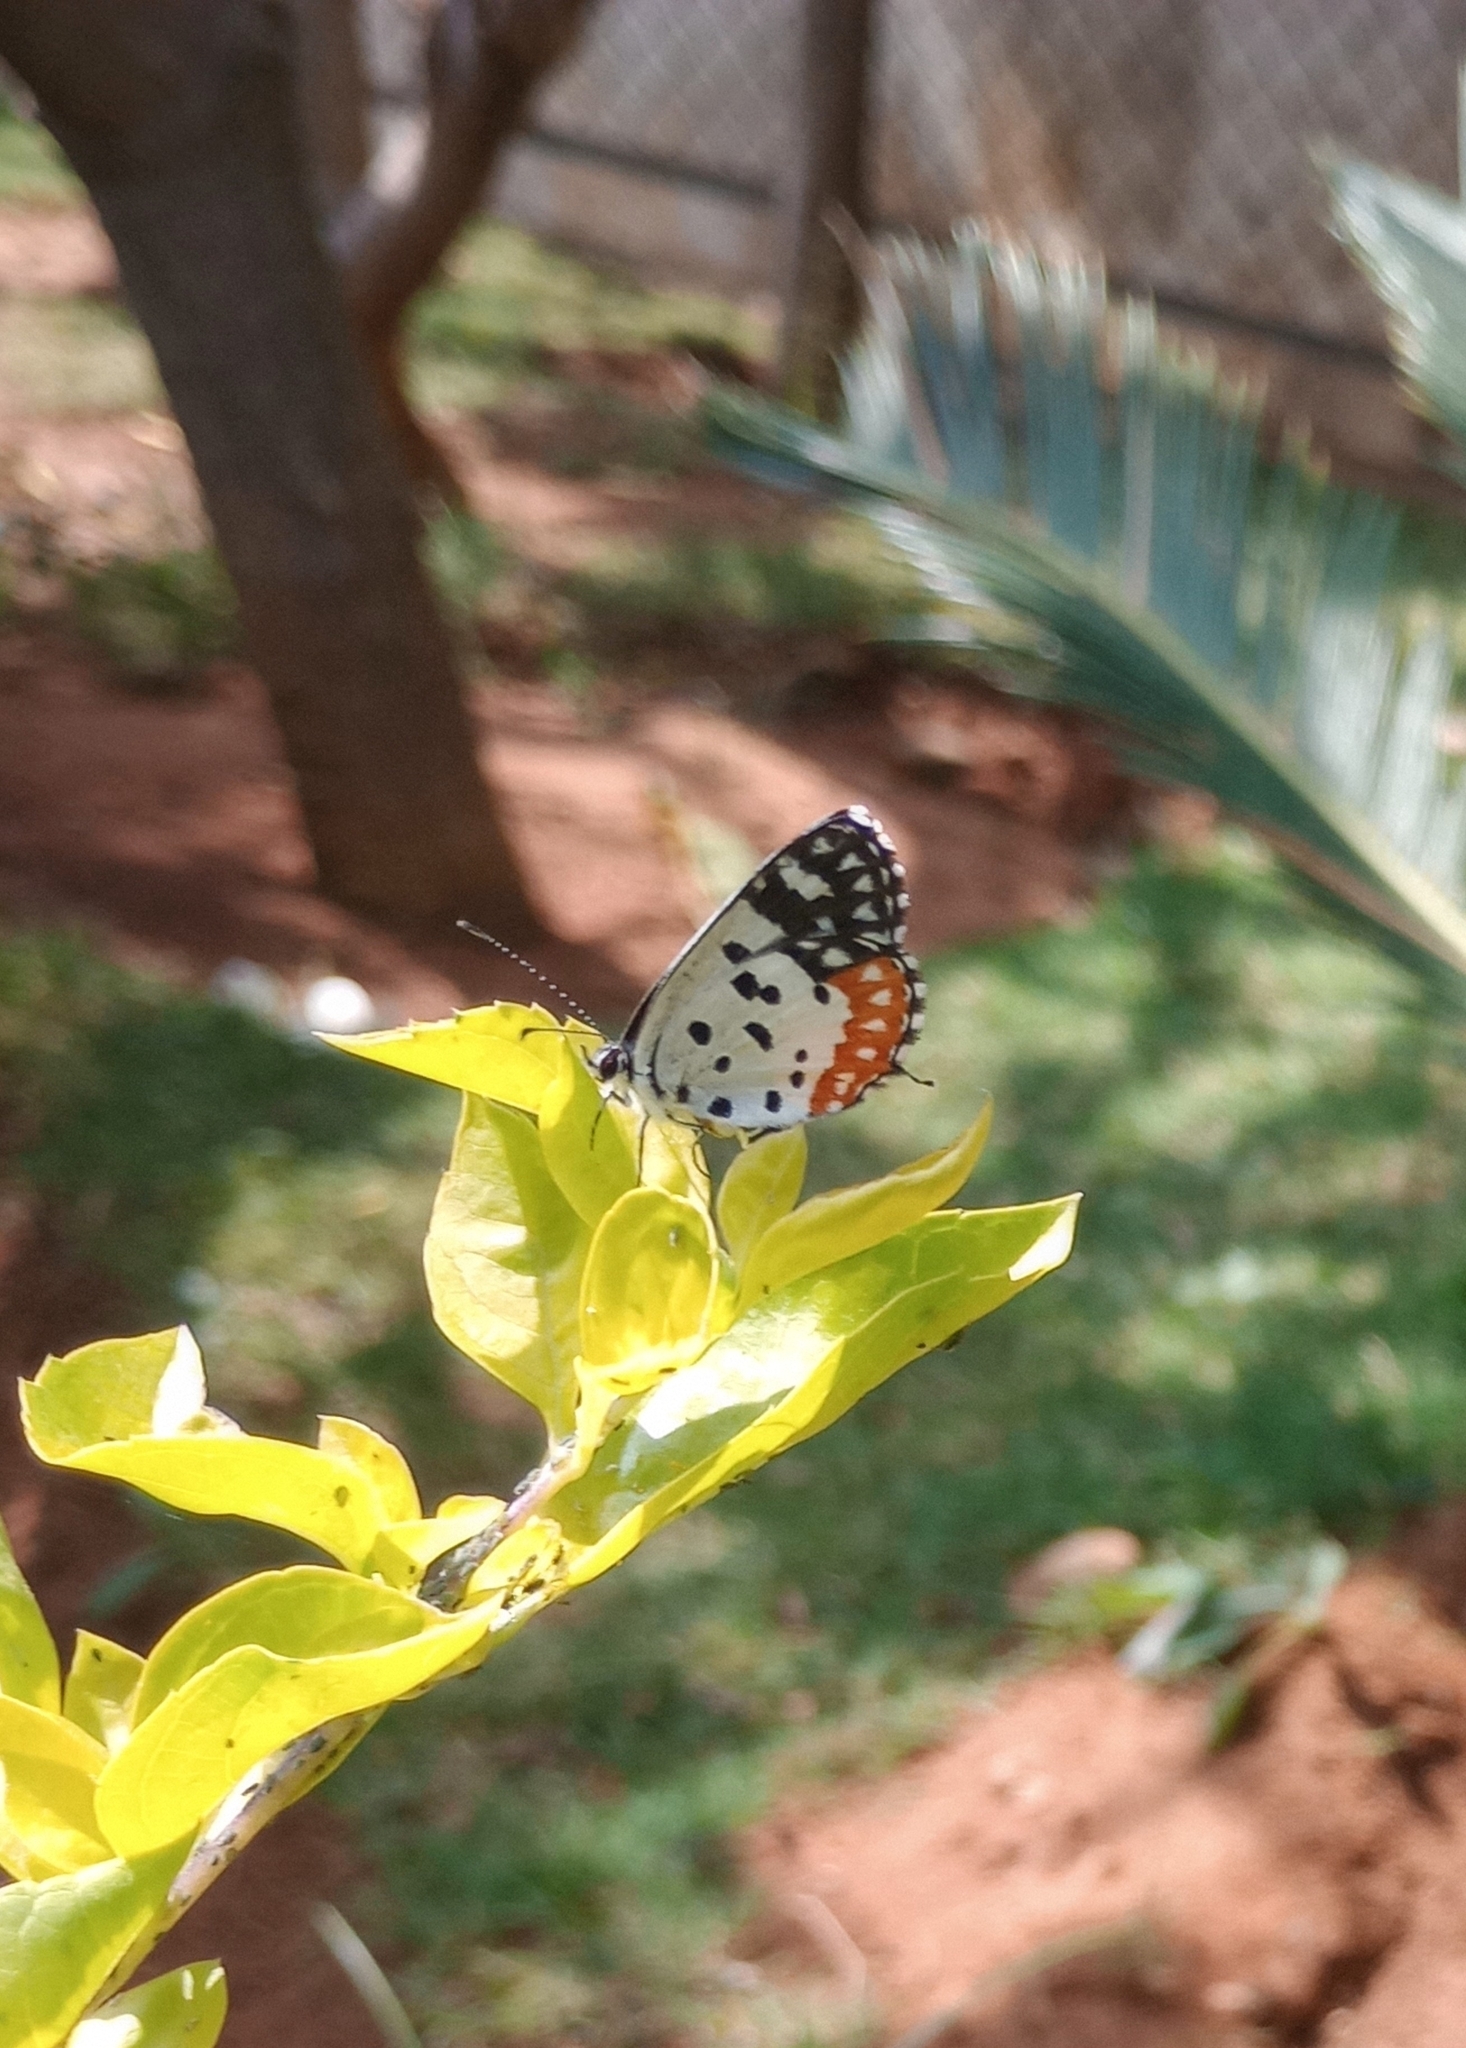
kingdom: Animalia
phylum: Arthropoda
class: Insecta
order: Lepidoptera
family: Lycaenidae
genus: Talicada
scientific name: Talicada nyseus
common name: Red pierrot
